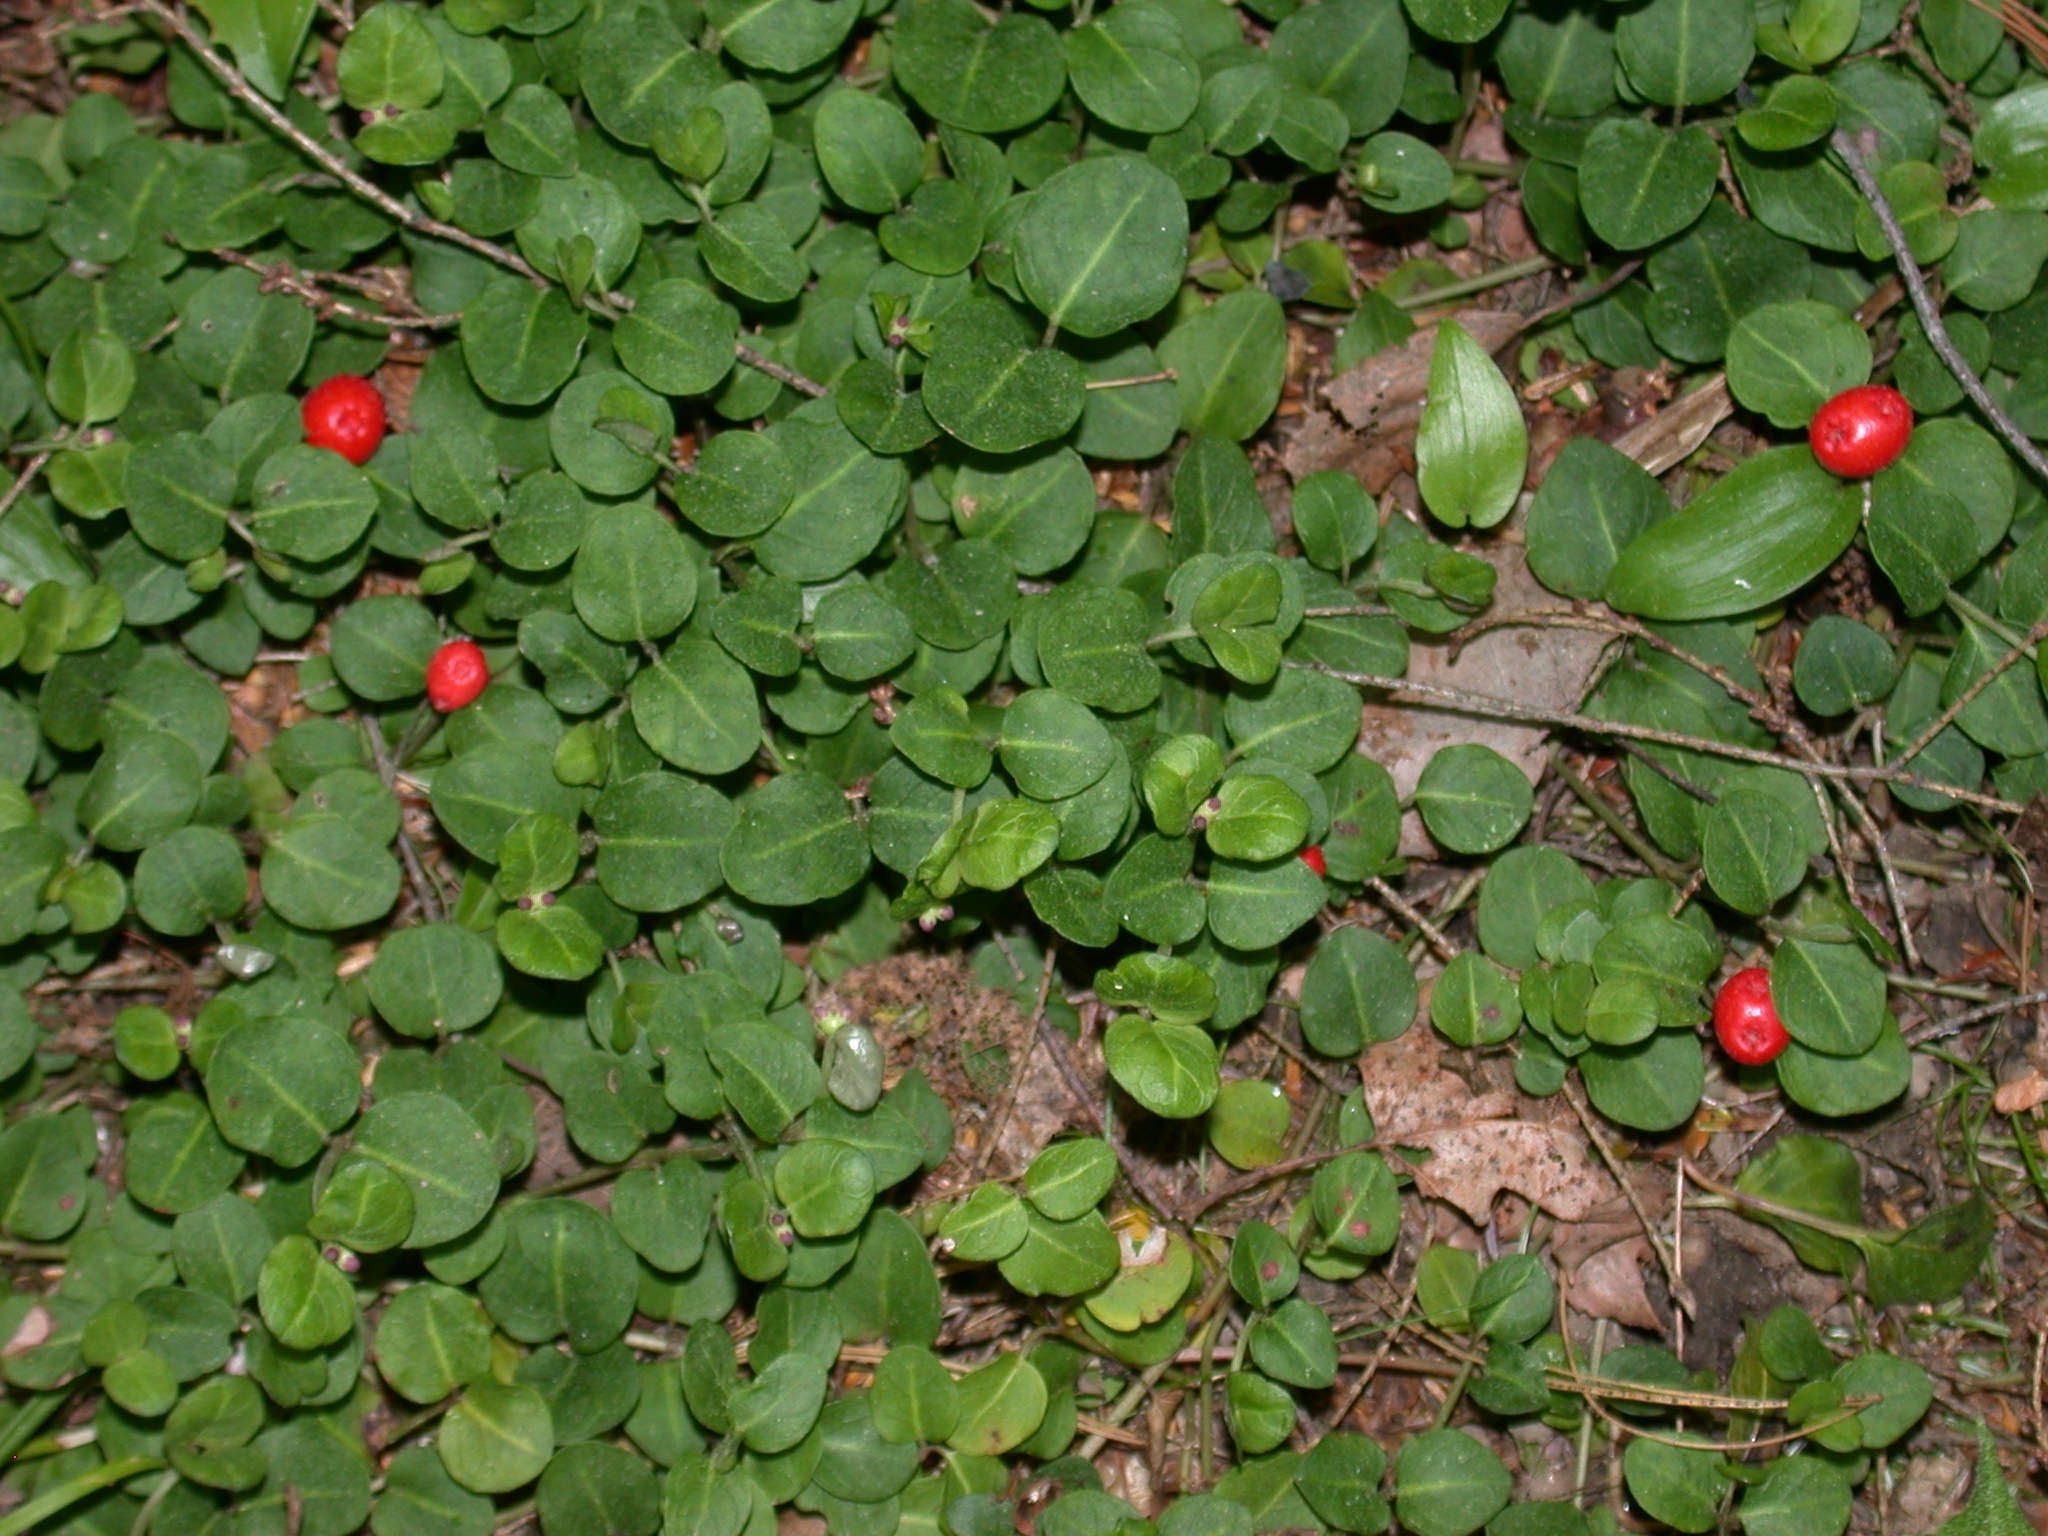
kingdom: Plantae
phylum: Tracheophyta
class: Magnoliopsida
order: Gentianales
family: Rubiaceae
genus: Mitchella
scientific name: Mitchella repens
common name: Partridge-berry
